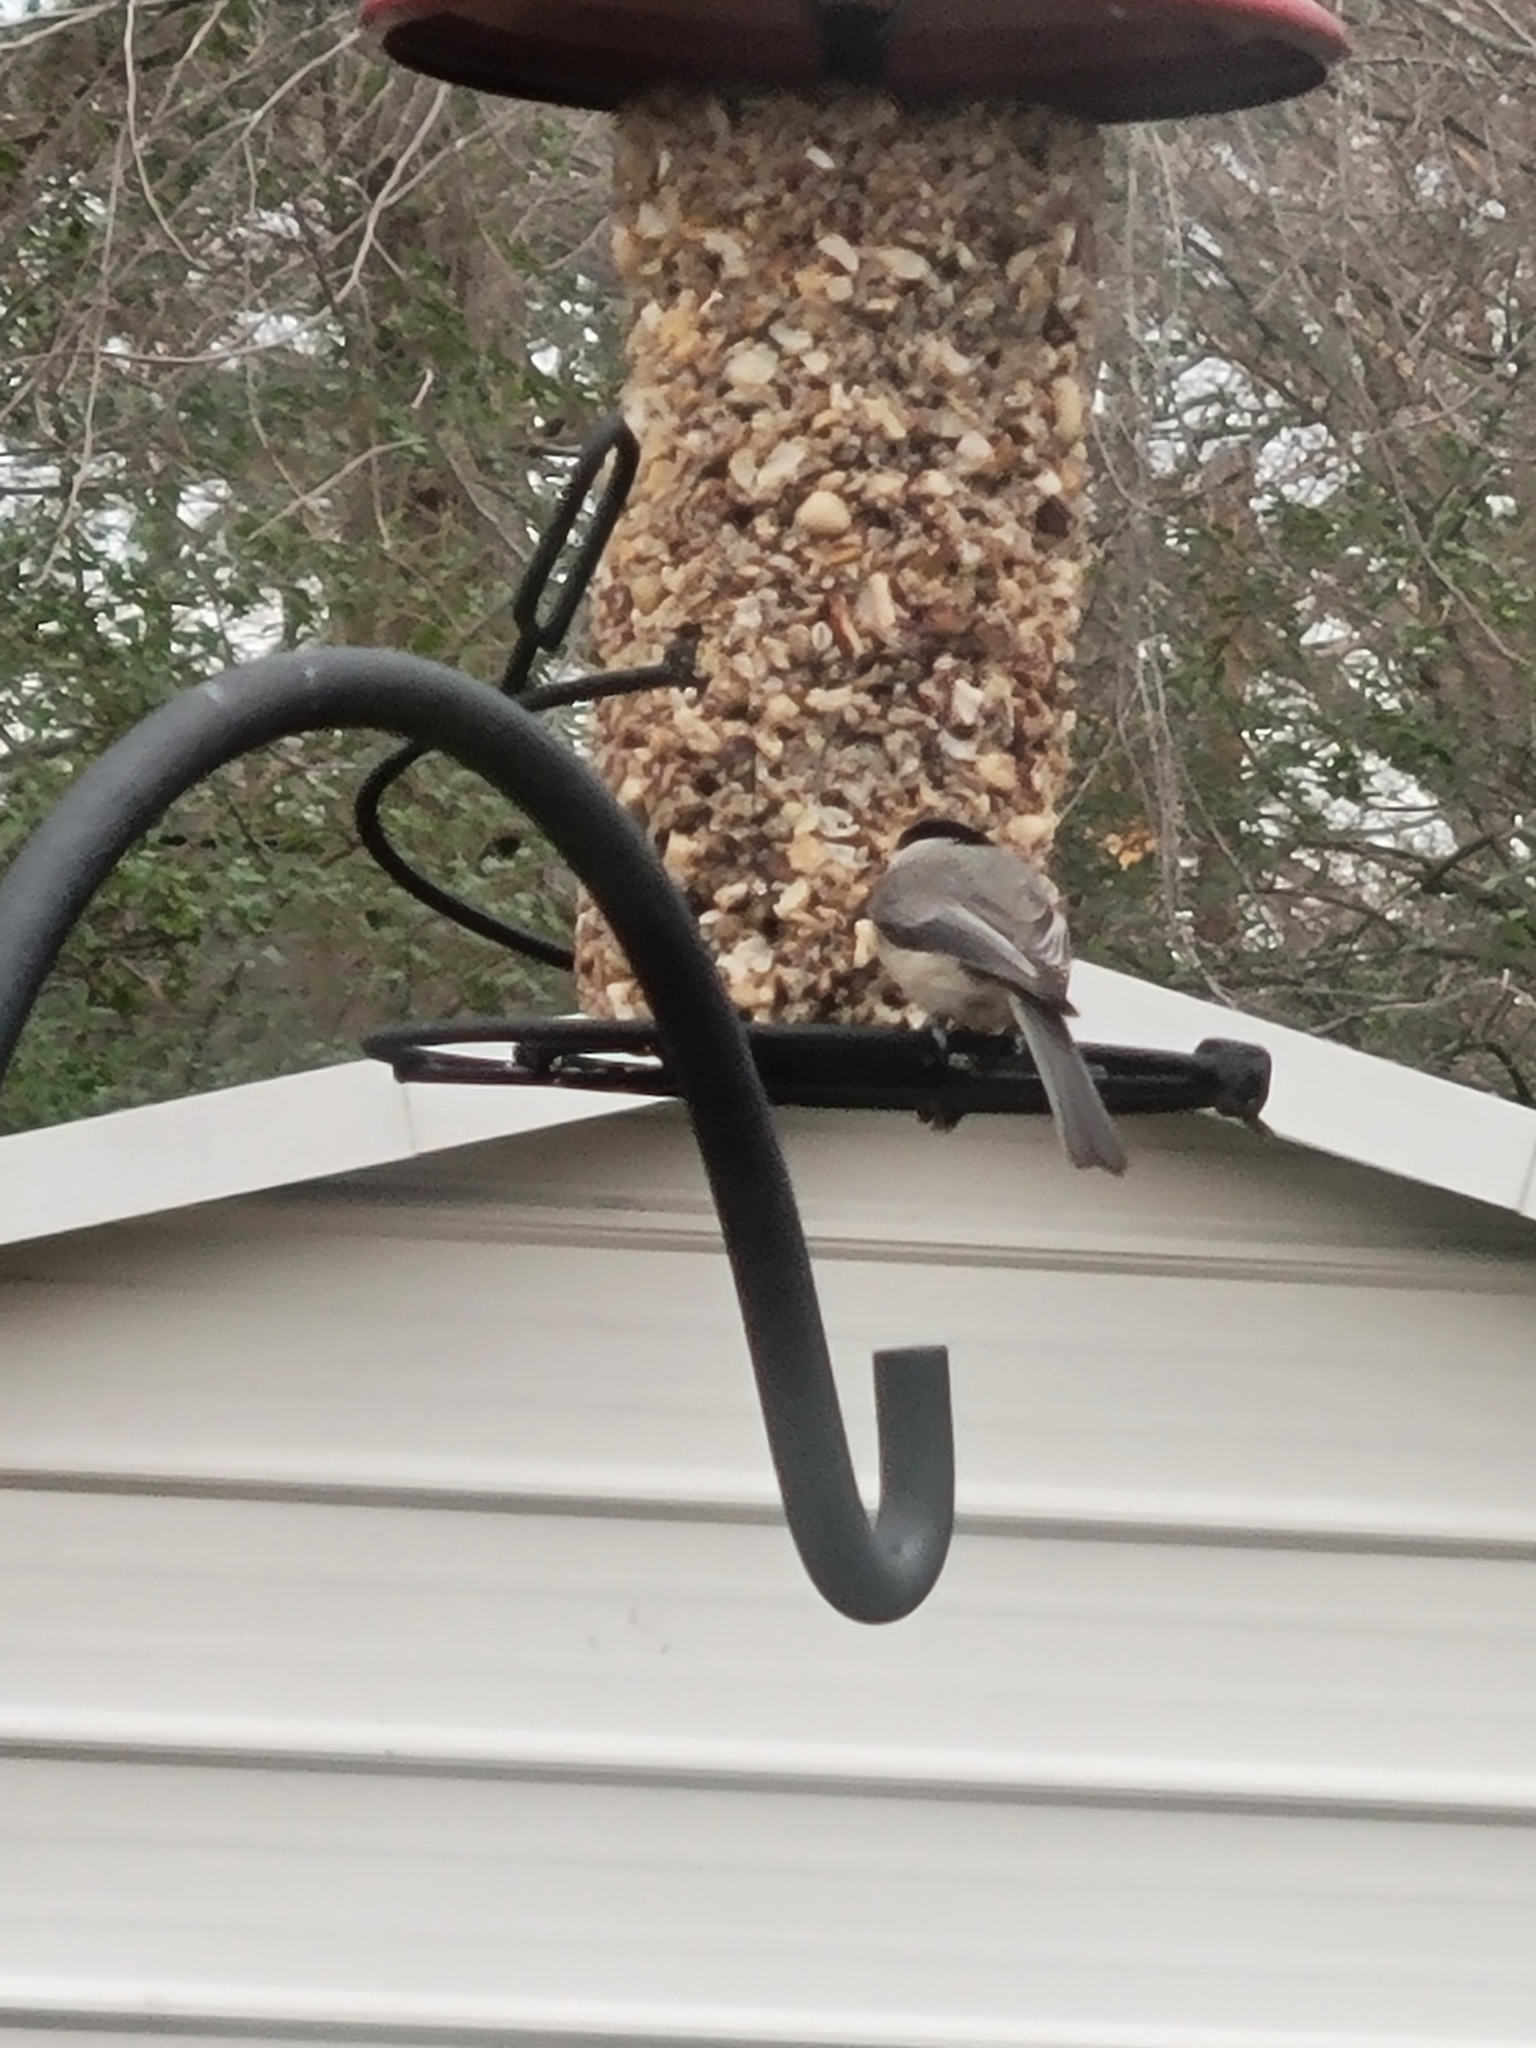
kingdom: Animalia
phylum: Chordata
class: Aves
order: Passeriformes
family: Paridae
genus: Poecile
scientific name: Poecile carolinensis
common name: Carolina chickadee
